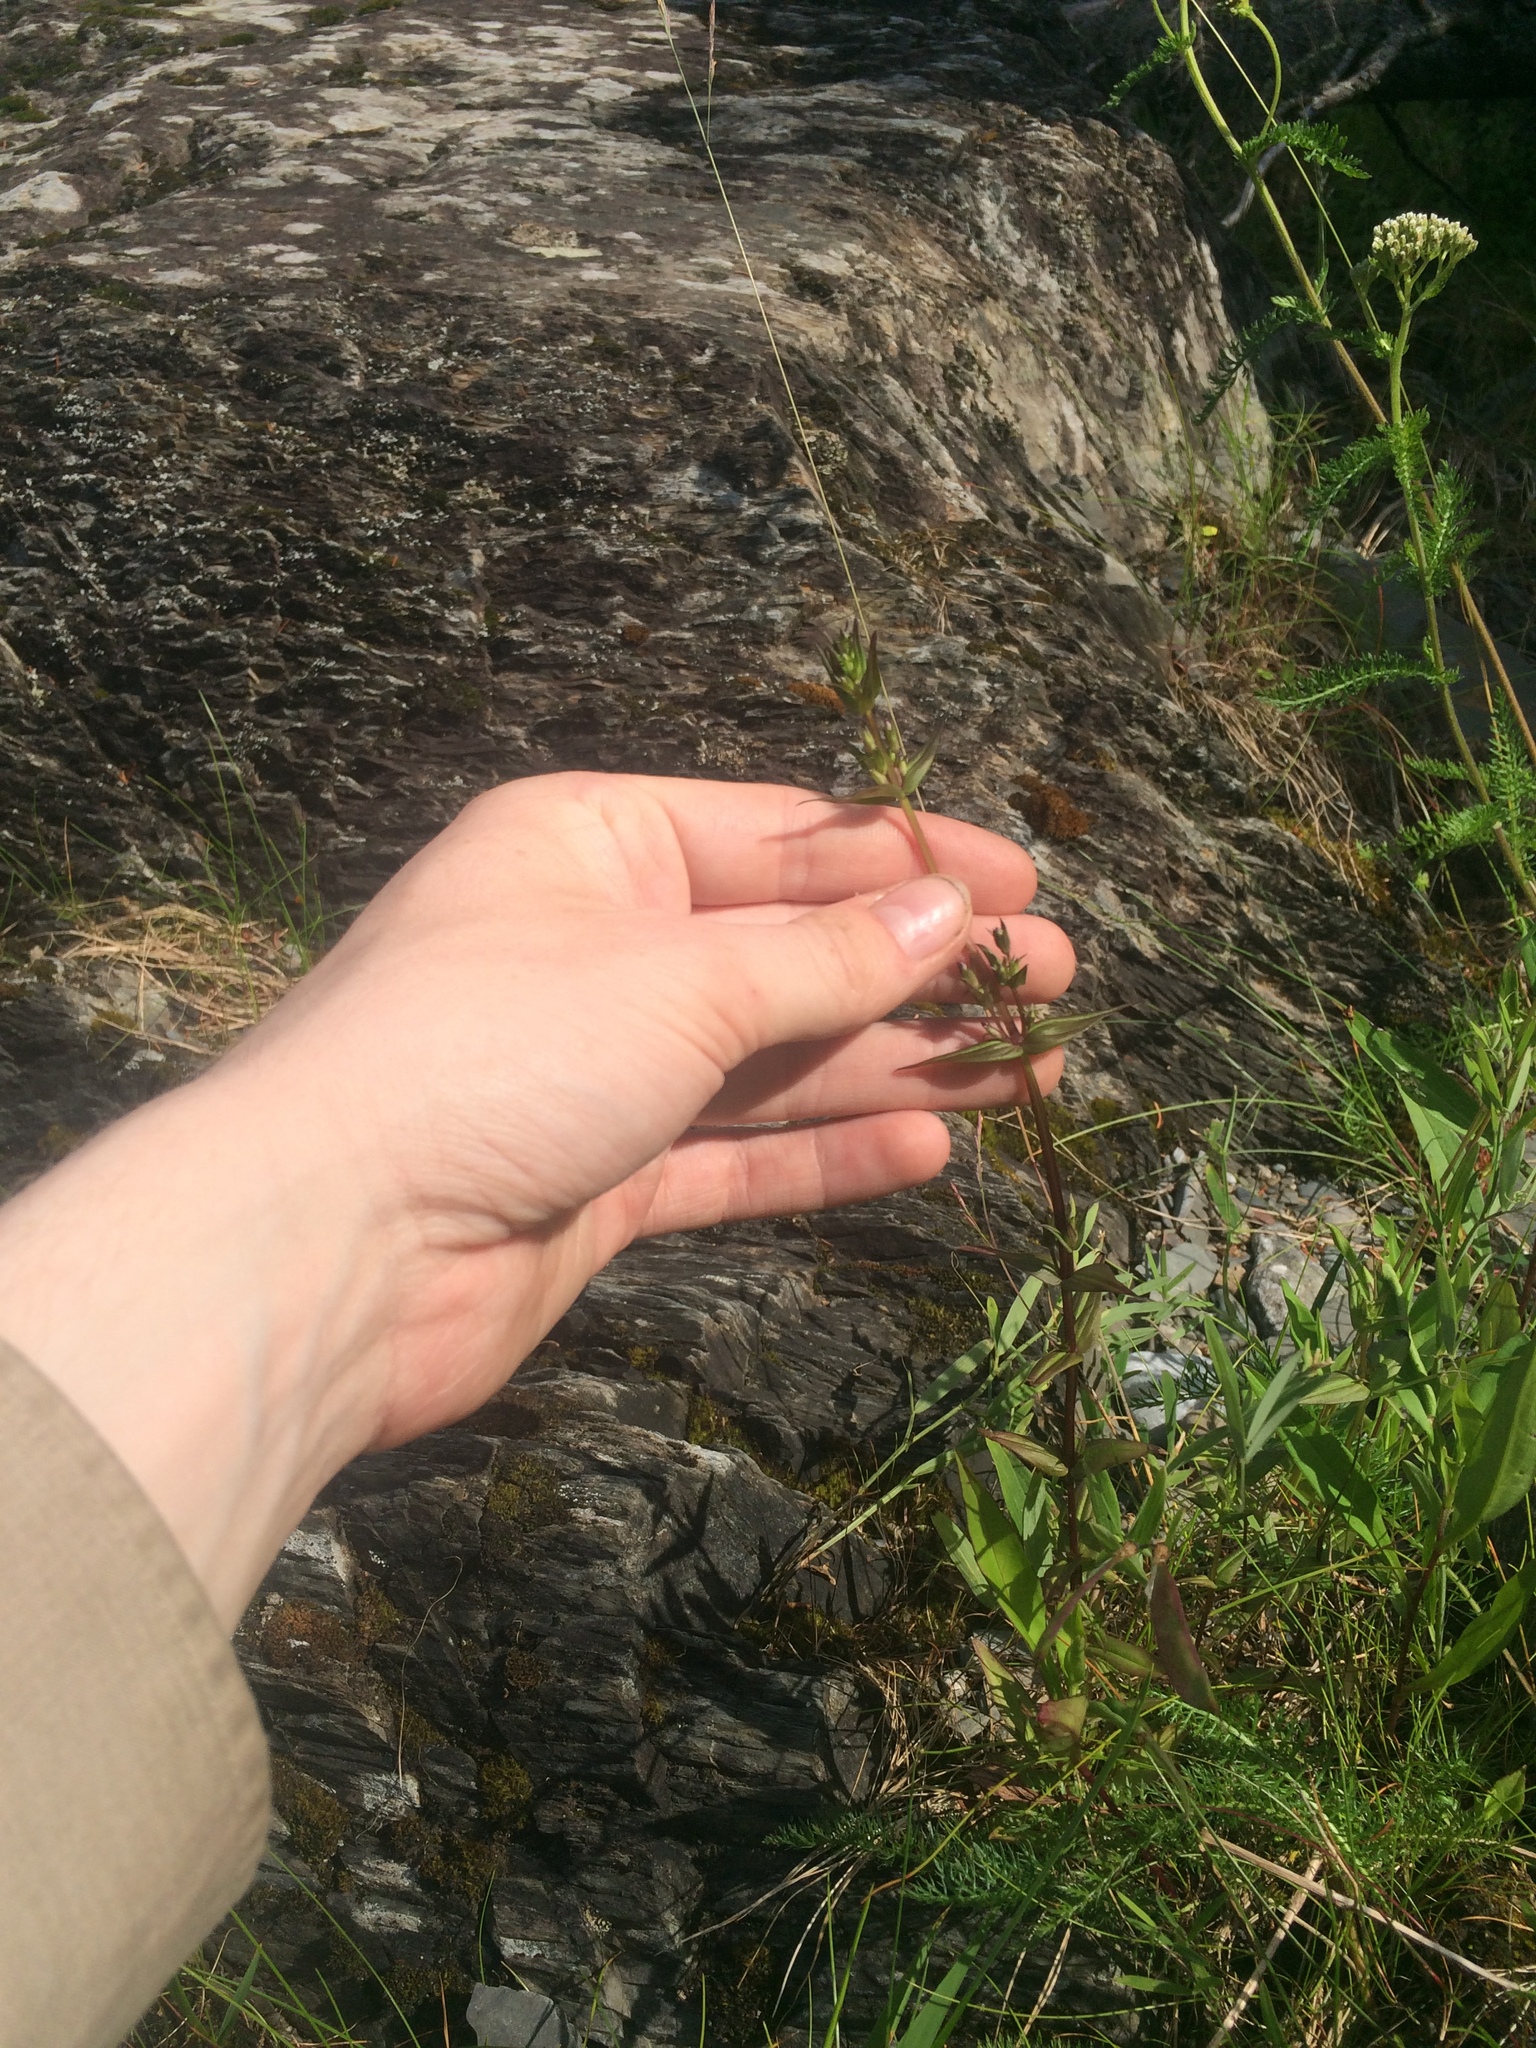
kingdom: Plantae
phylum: Tracheophyta
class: Magnoliopsida
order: Gentianales
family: Gentianaceae
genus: Gentianella
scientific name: Gentianella amarella
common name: Autumn gentian
